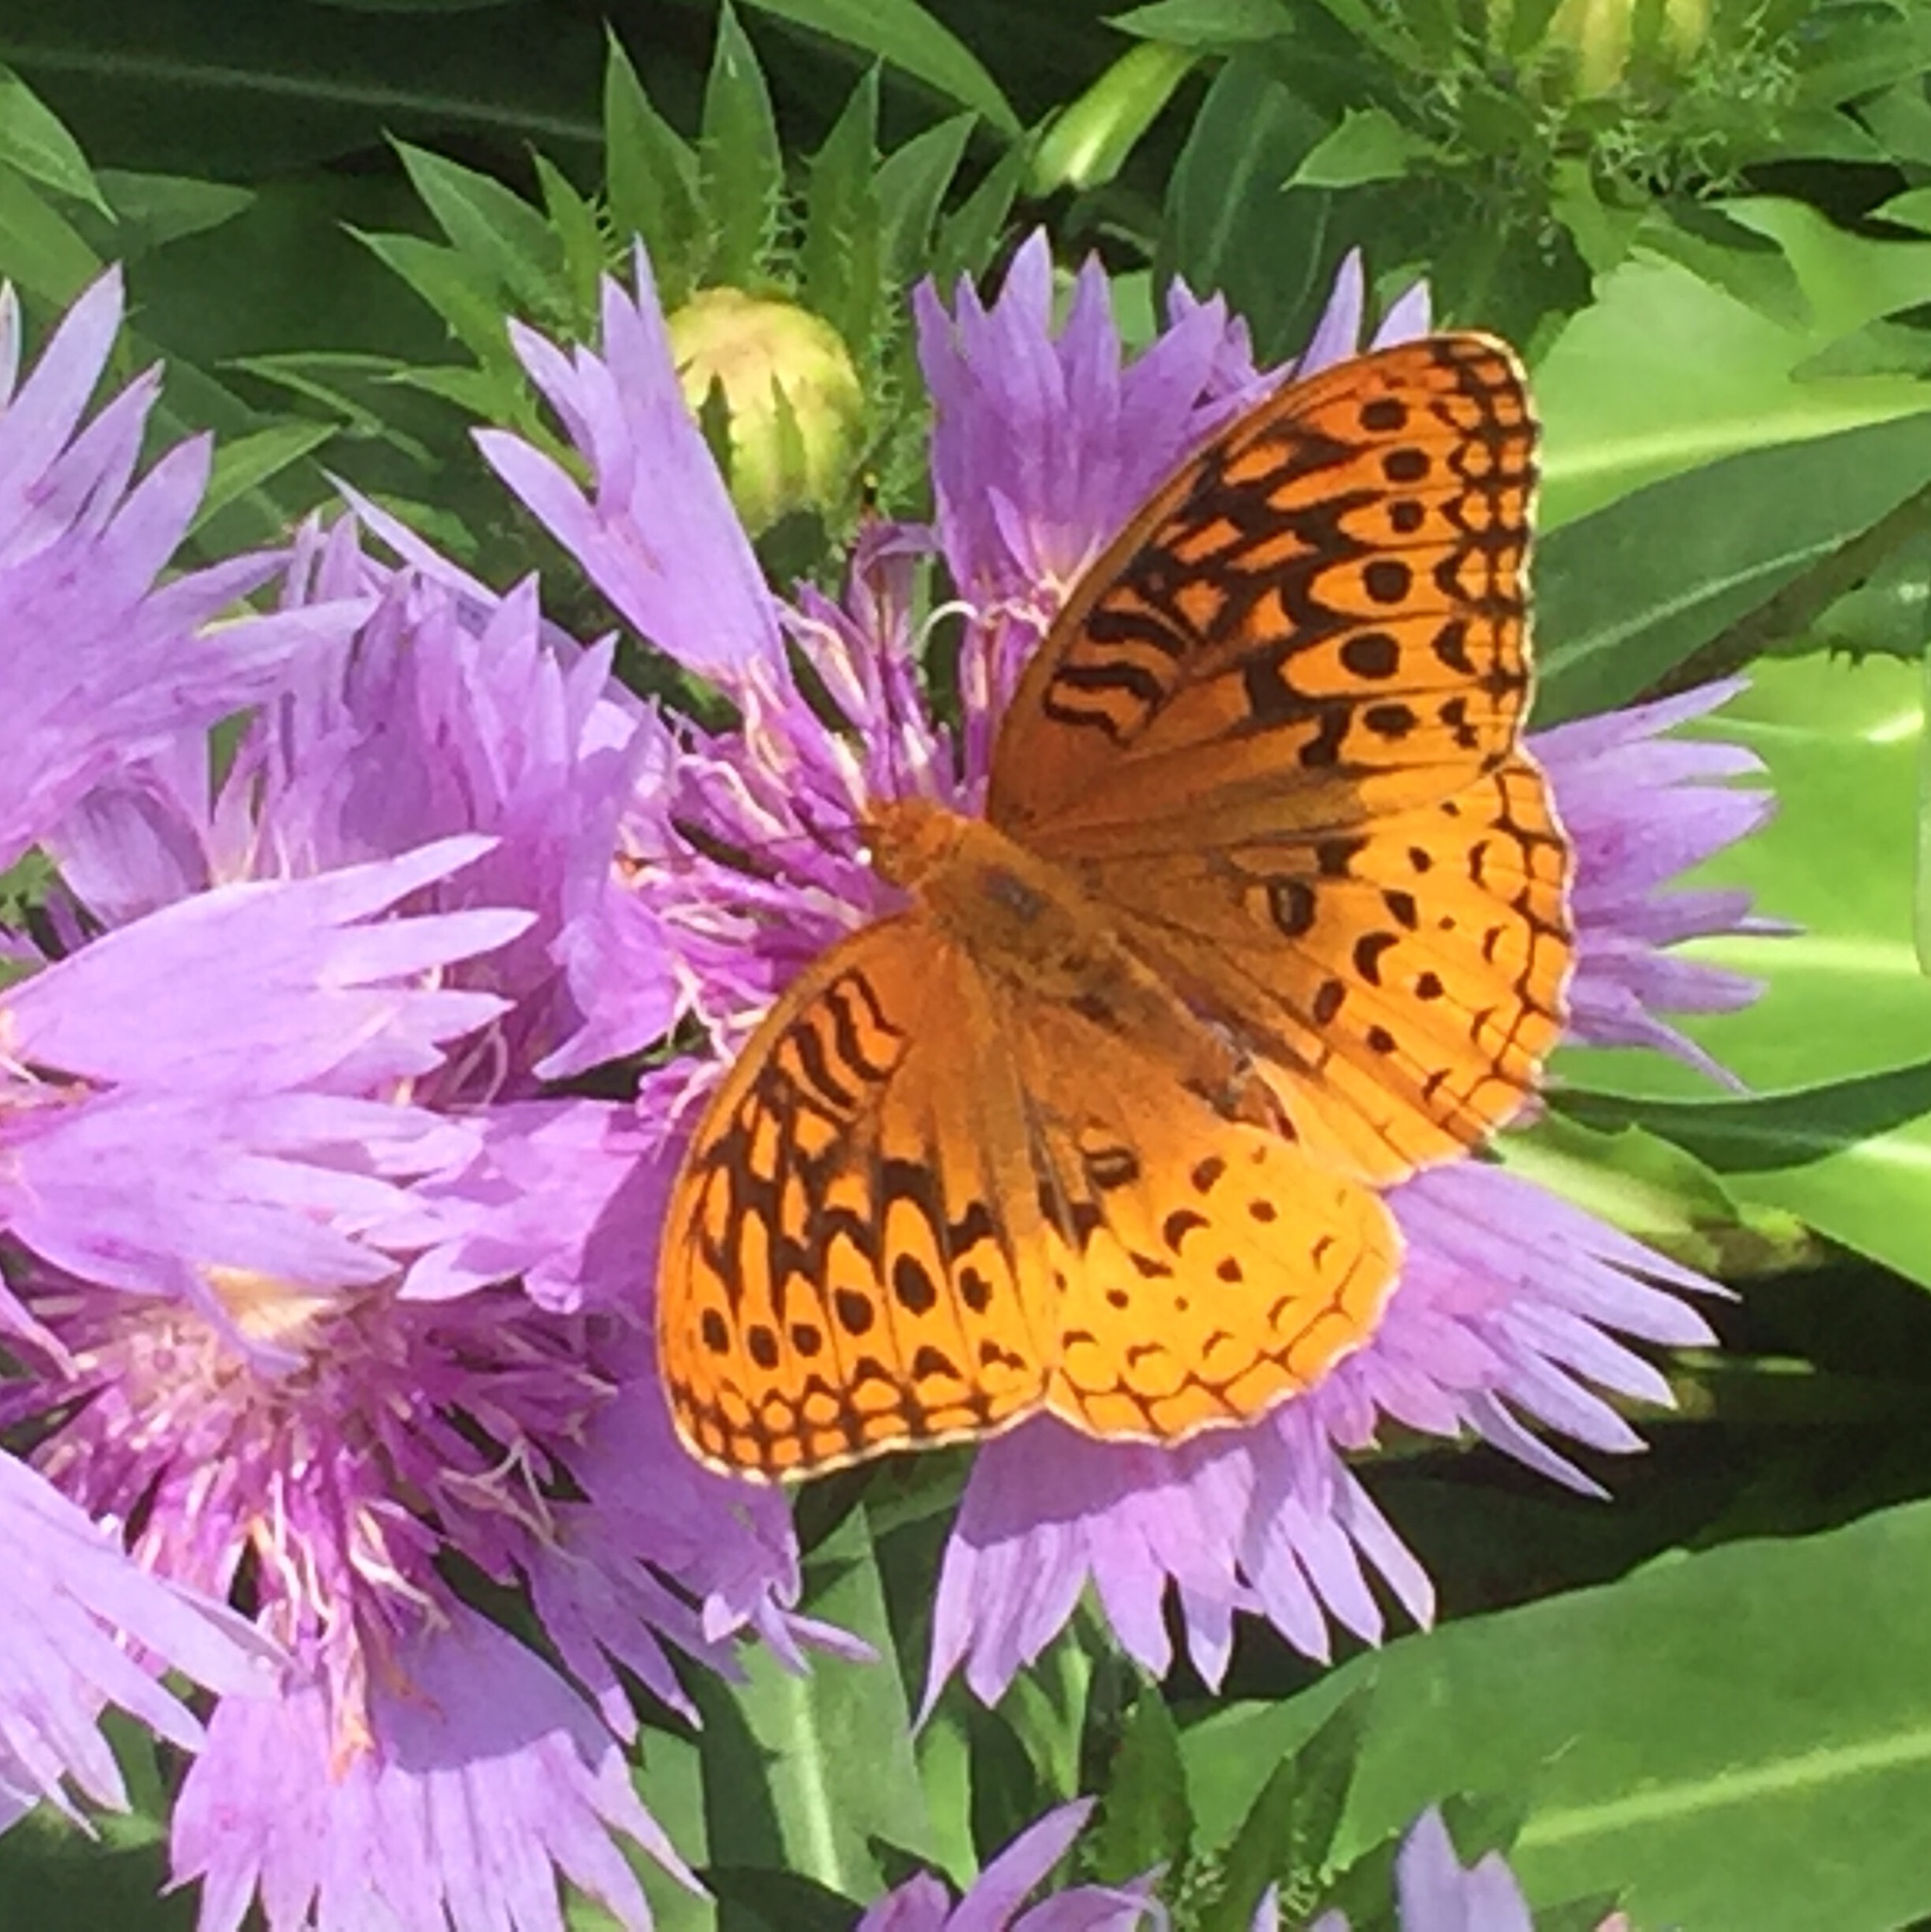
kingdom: Animalia
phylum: Arthropoda
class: Insecta
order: Lepidoptera
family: Nymphalidae
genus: Speyeria
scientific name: Speyeria cybele
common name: Great spangled fritillary
